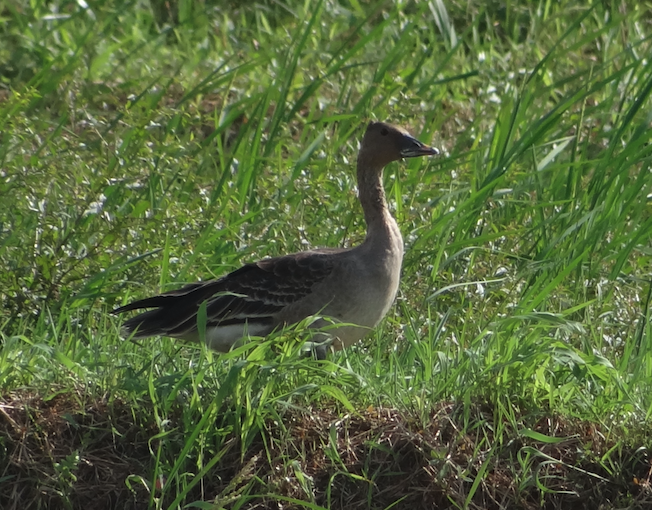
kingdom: Animalia
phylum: Chordata
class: Aves
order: Anseriformes
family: Anatidae
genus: Anser
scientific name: Anser fabalis
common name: Bean goose
